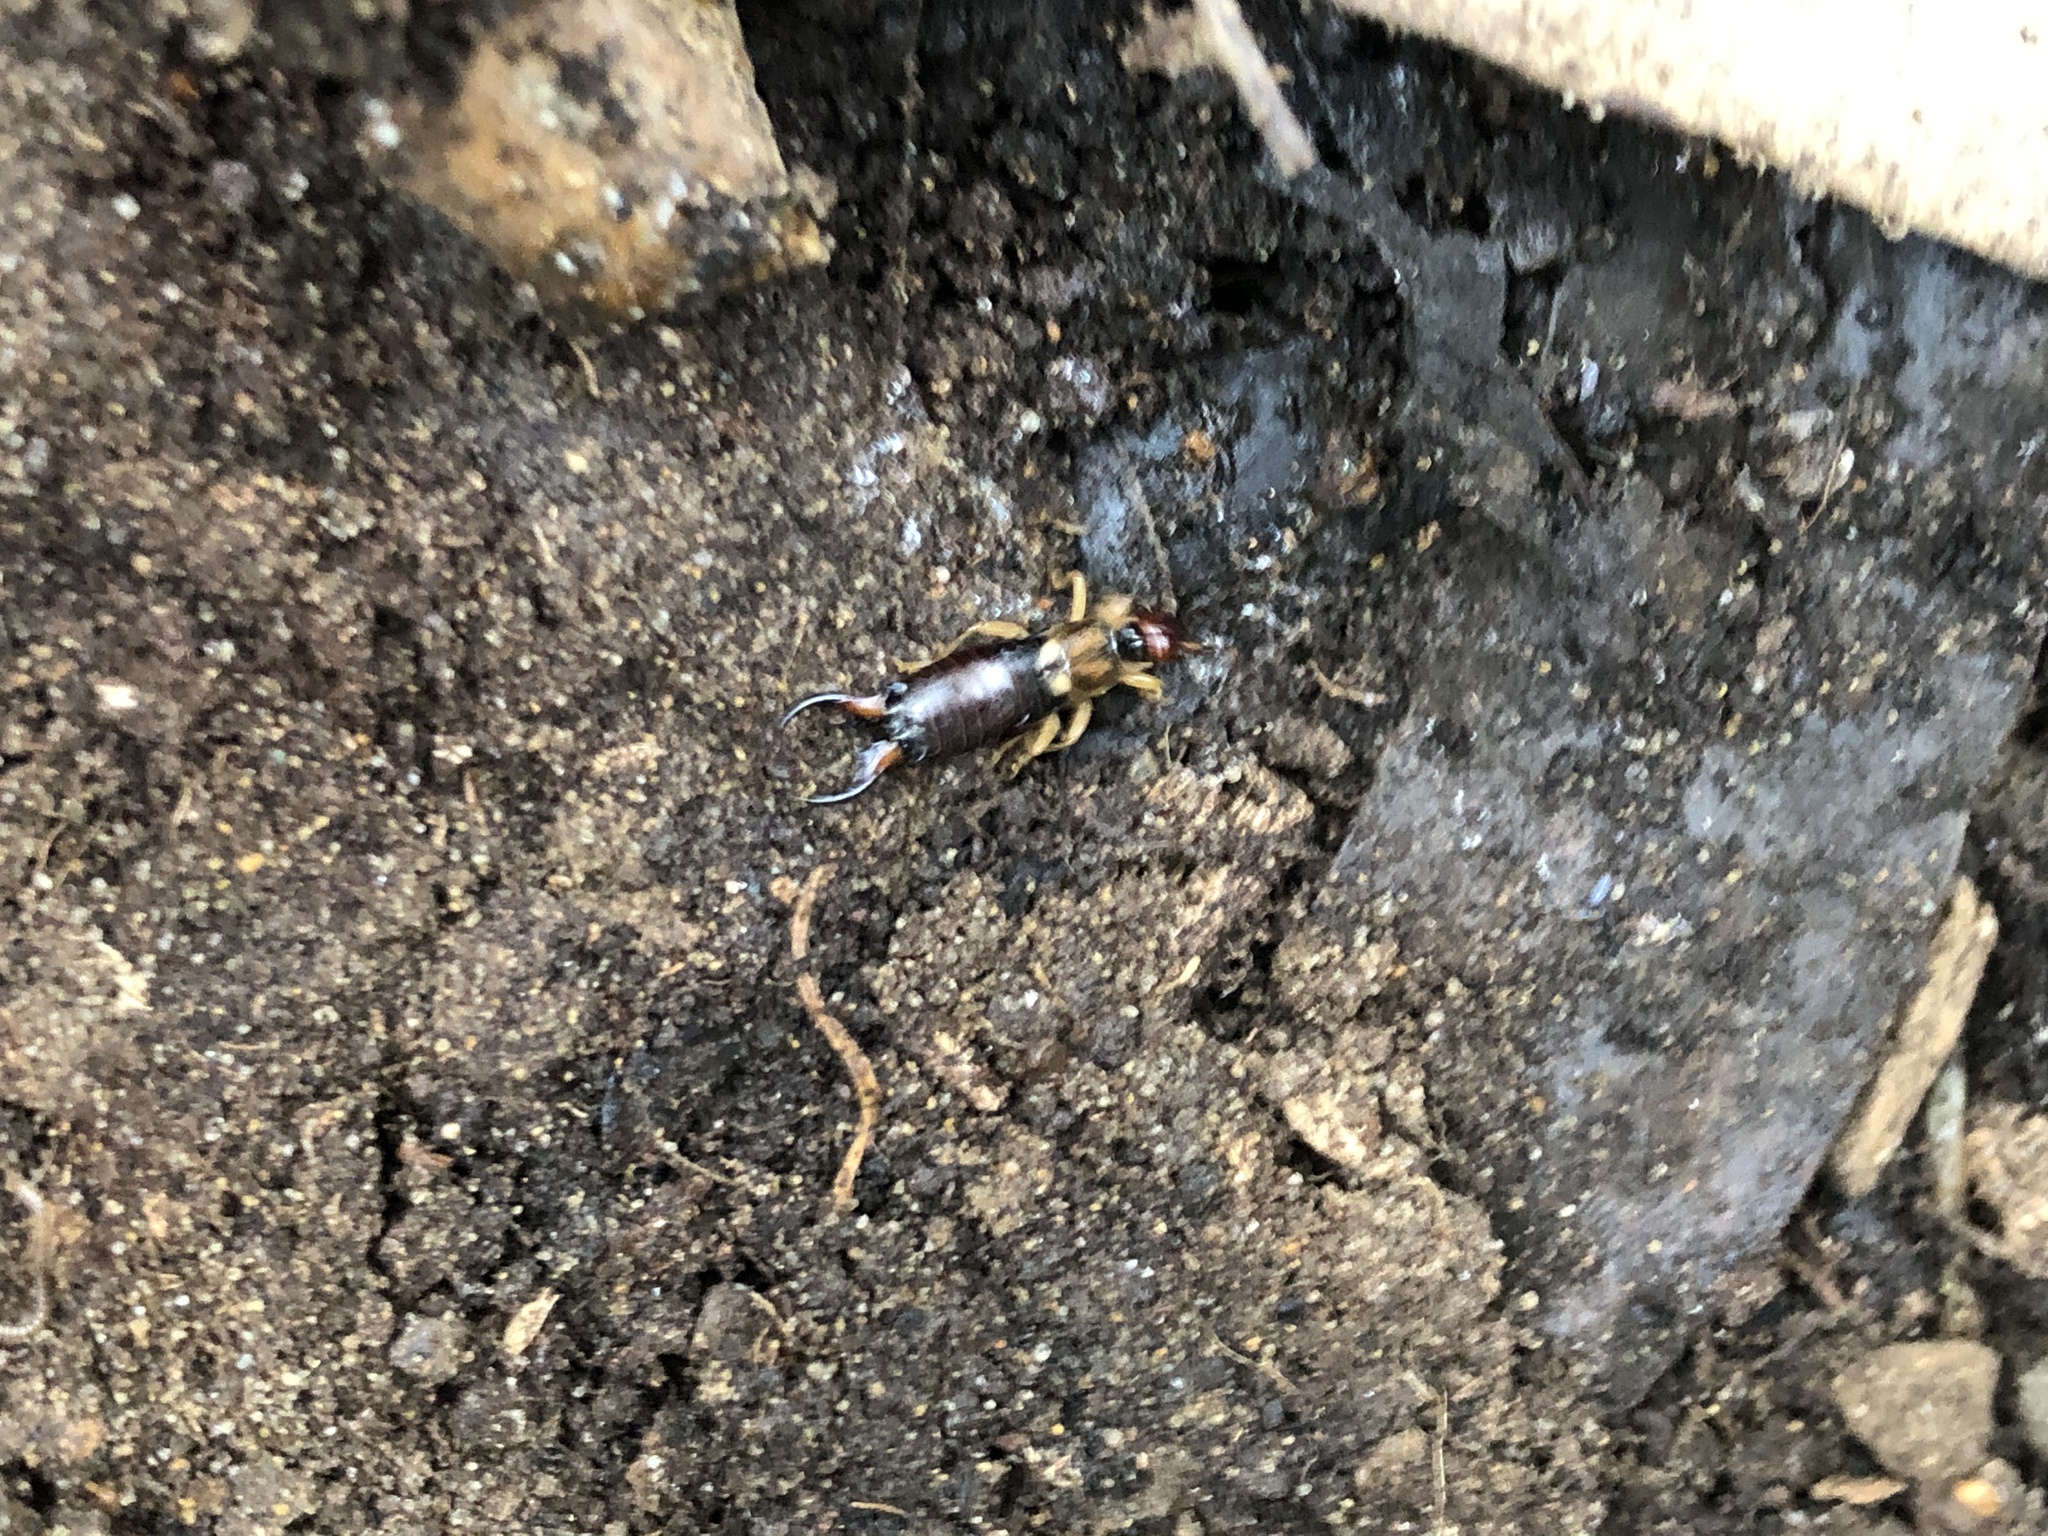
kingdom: Animalia
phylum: Arthropoda
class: Insecta
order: Dermaptera
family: Forficulidae
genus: Forficula
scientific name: Forficula
